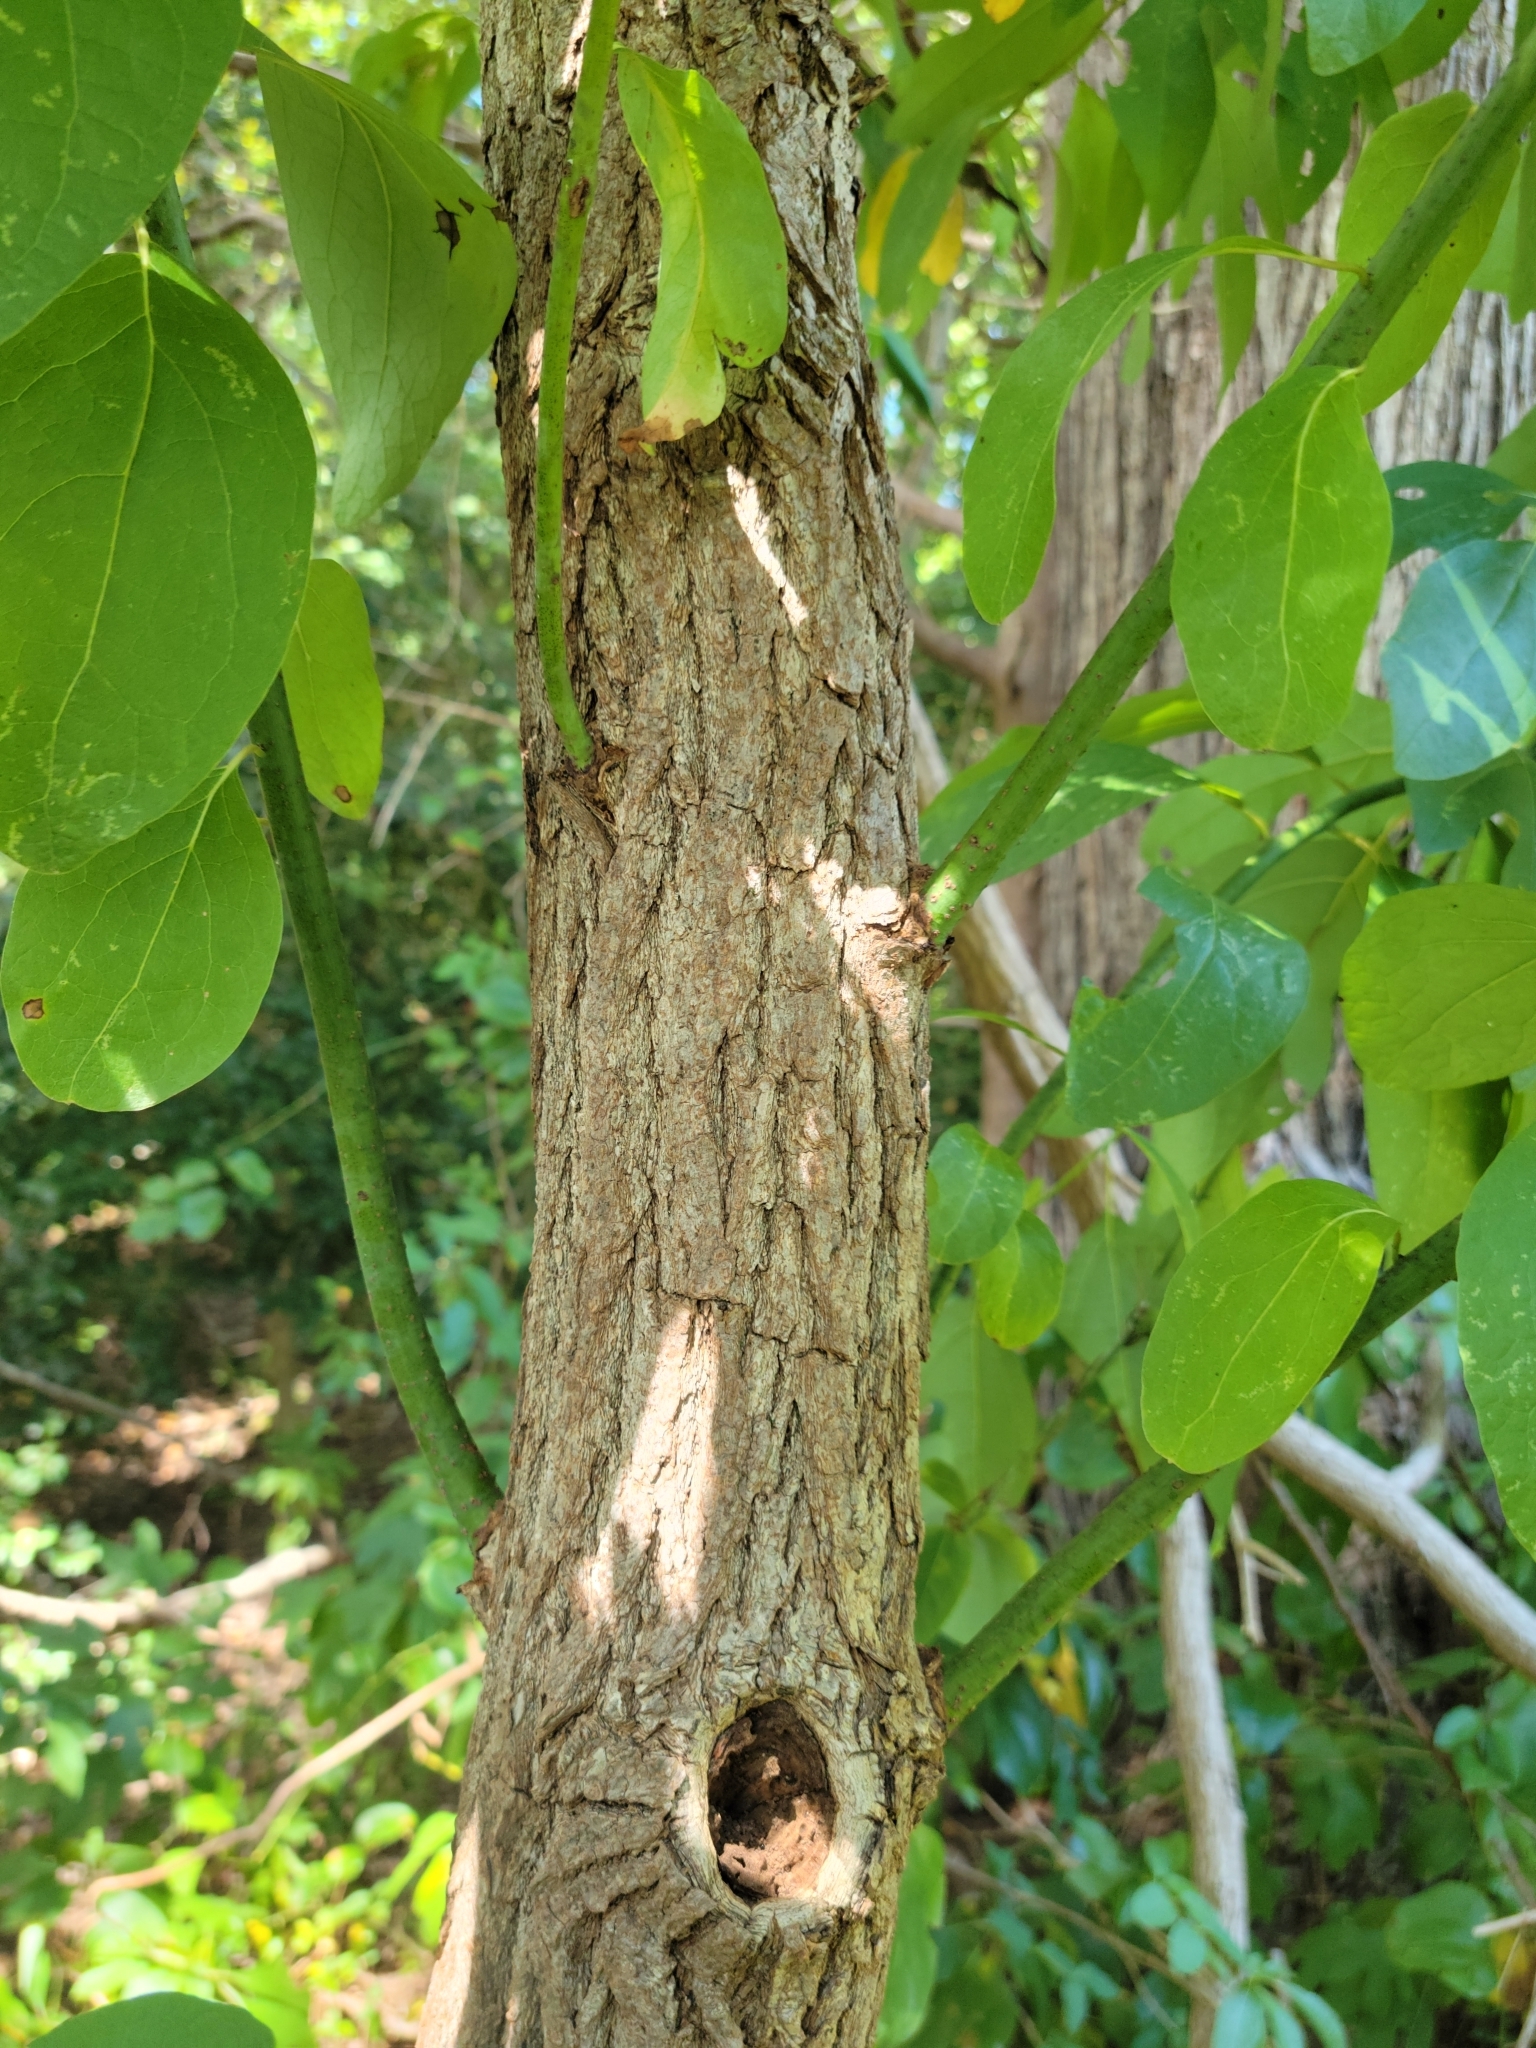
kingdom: Plantae
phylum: Tracheophyta
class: Magnoliopsida
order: Laurales
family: Lauraceae
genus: Sassafras
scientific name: Sassafras albidum
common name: Sassafras
